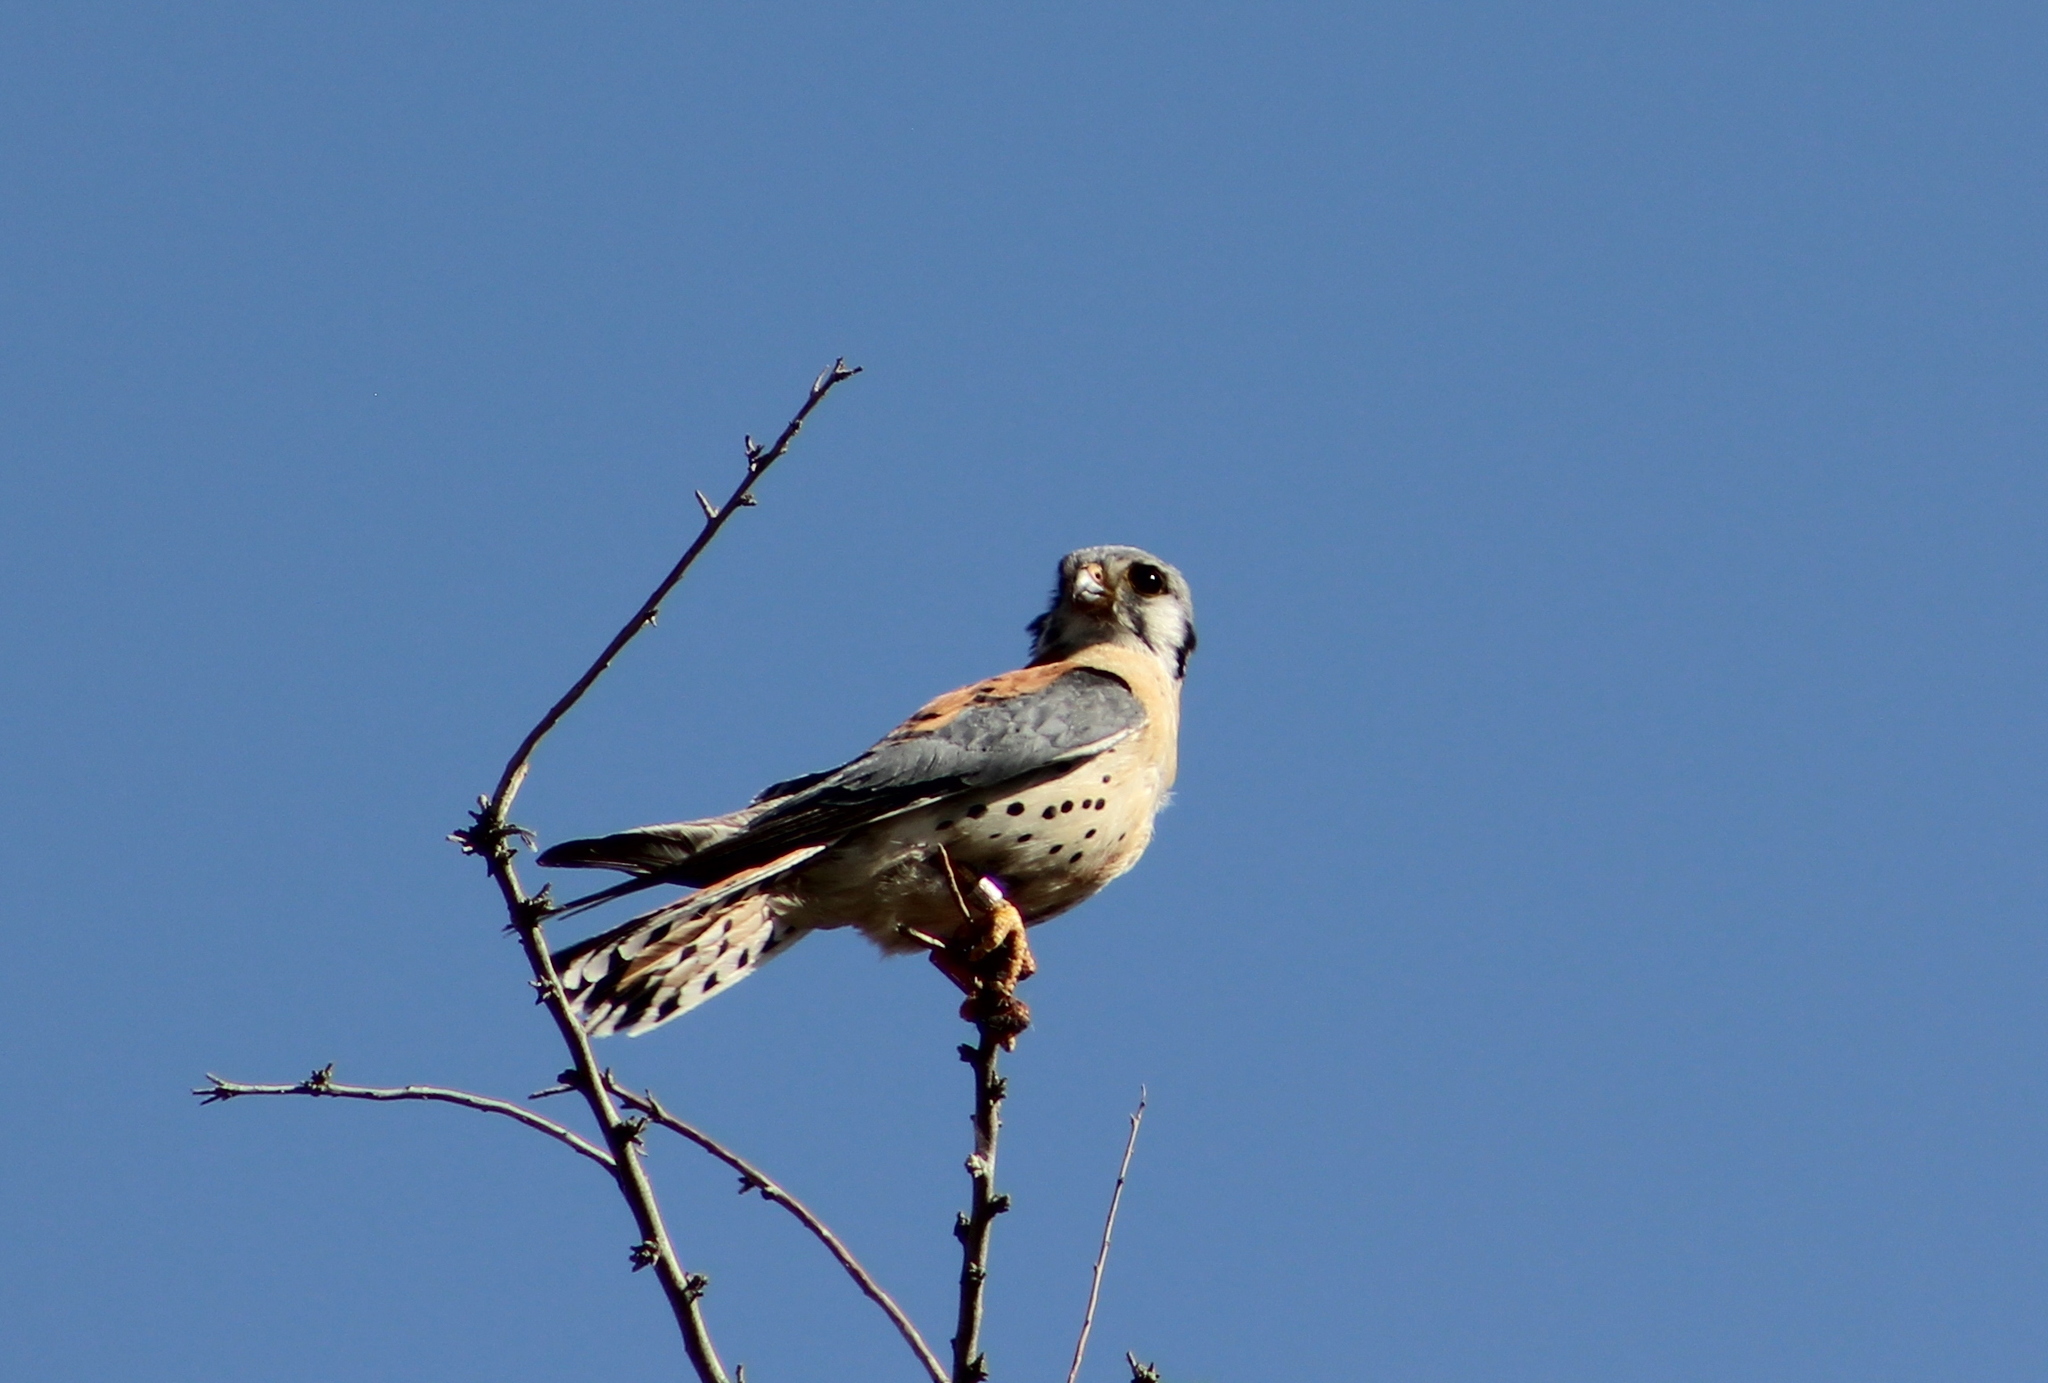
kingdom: Animalia
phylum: Chordata
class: Aves
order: Falconiformes
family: Falconidae
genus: Falco
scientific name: Falco sparverius
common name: American kestrel
